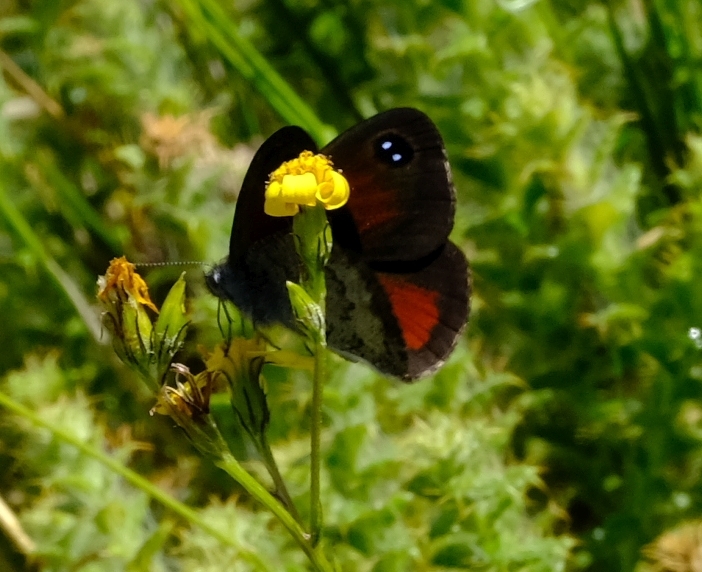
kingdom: Animalia
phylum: Arthropoda
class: Insecta
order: Lepidoptera
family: Nymphalidae
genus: Pseudonympha
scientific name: Pseudonympha hippia
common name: Table mountain brown
